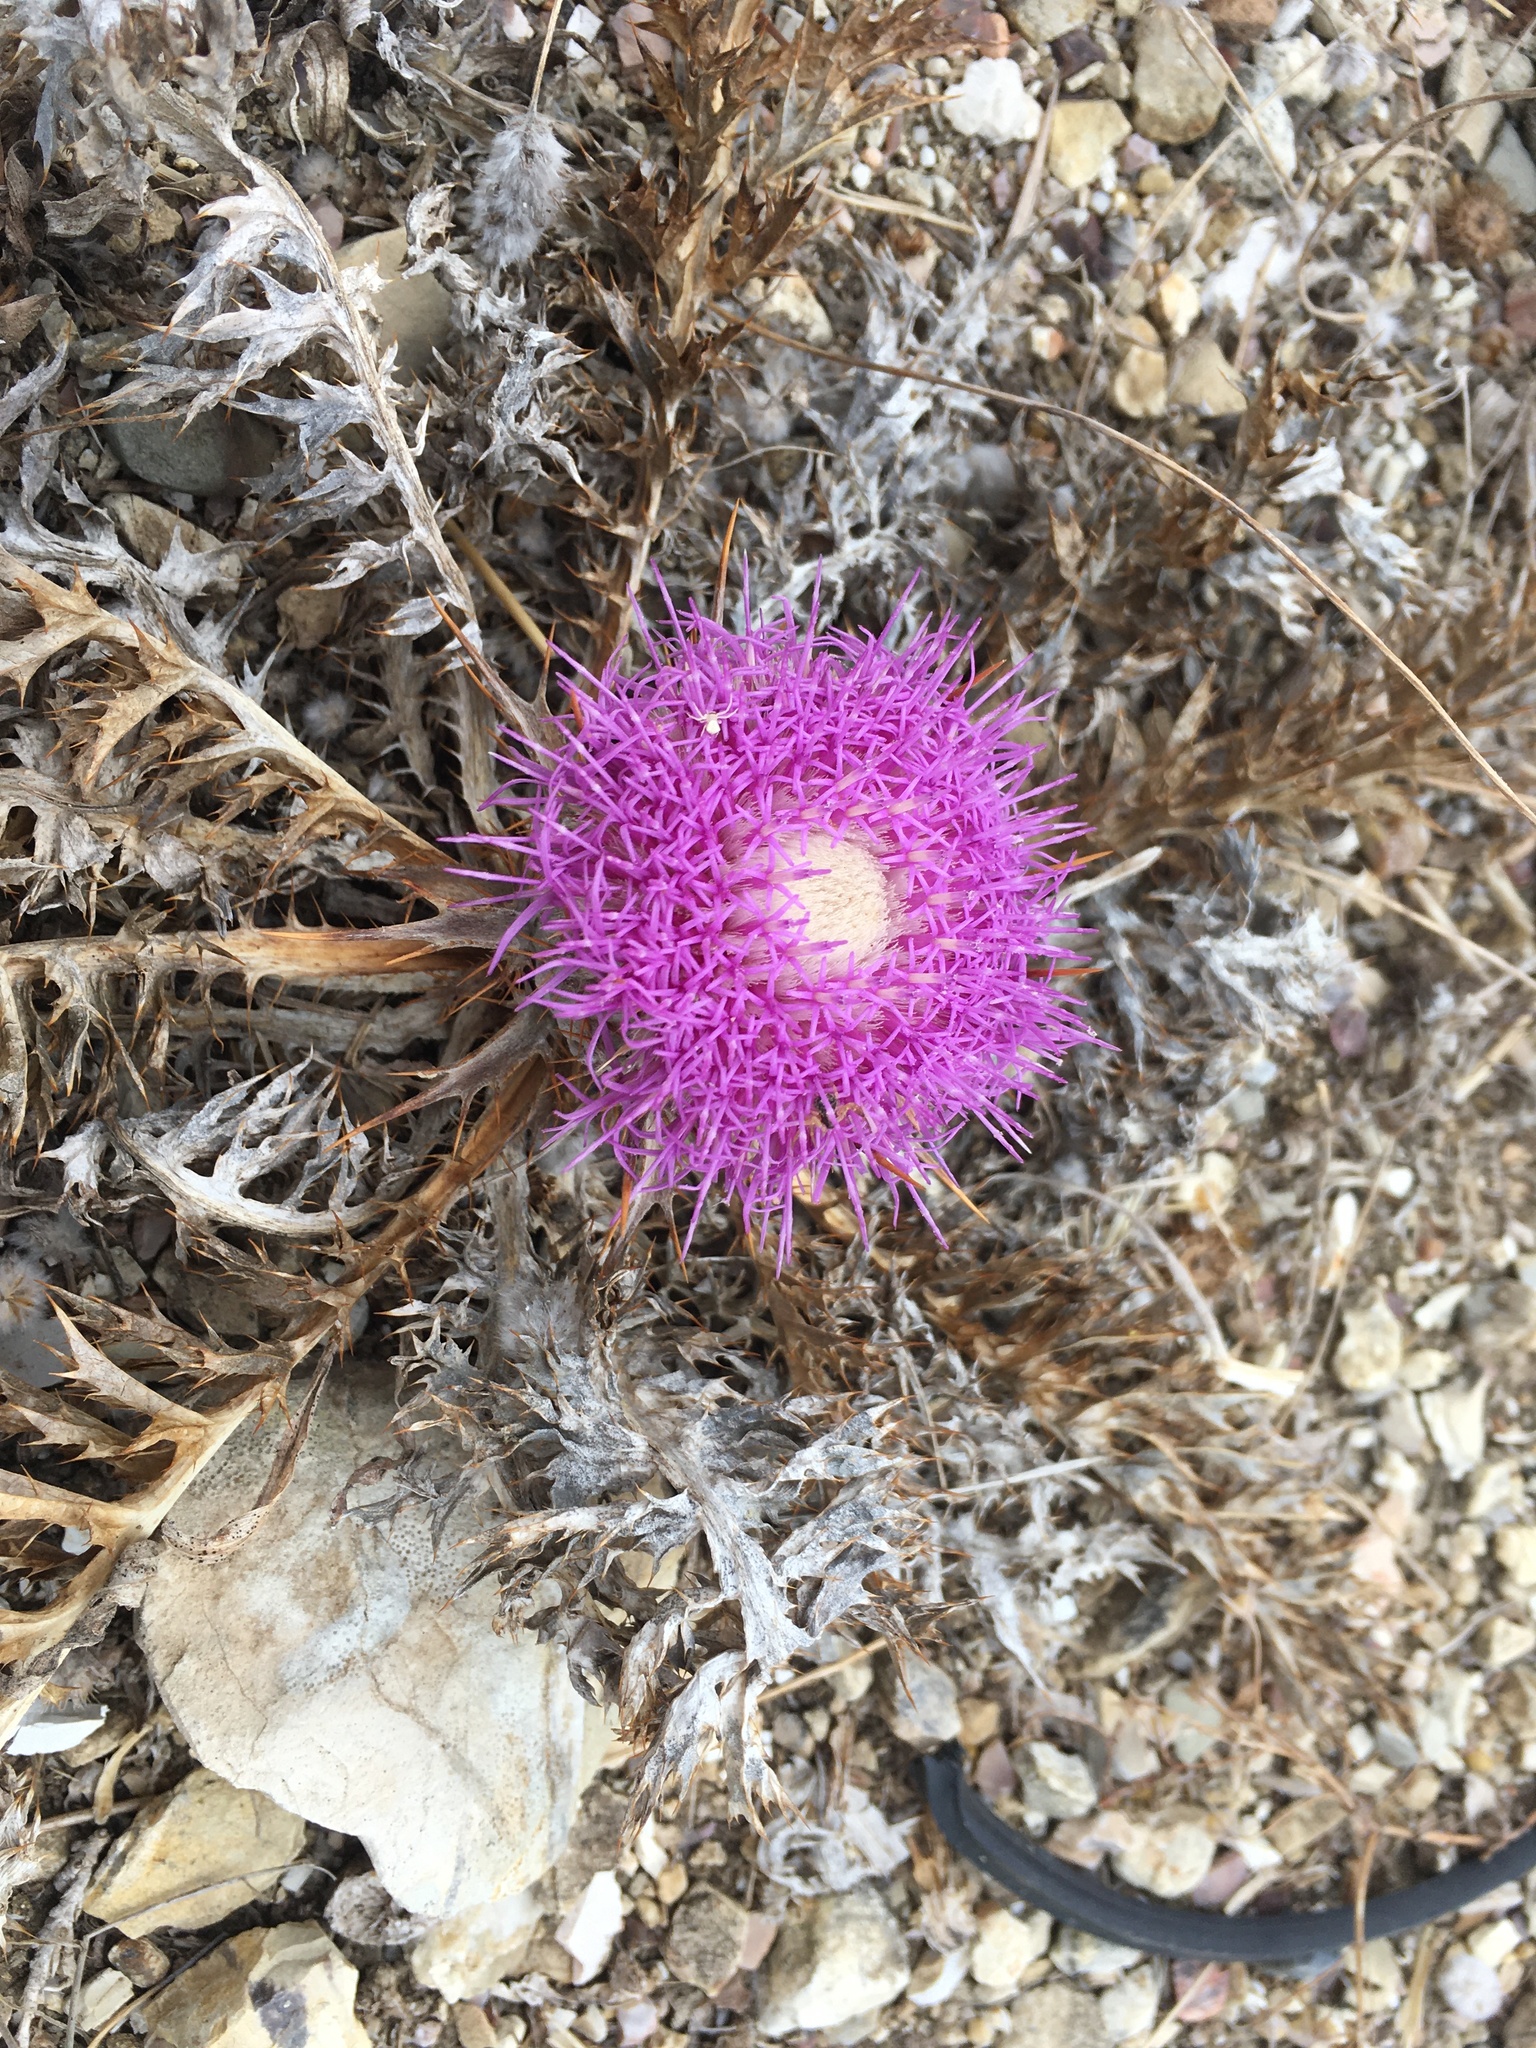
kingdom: Plantae
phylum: Tracheophyta
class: Magnoliopsida
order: Asterales
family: Asteraceae
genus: Chamaeleon
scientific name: Chamaeleon gummifer
